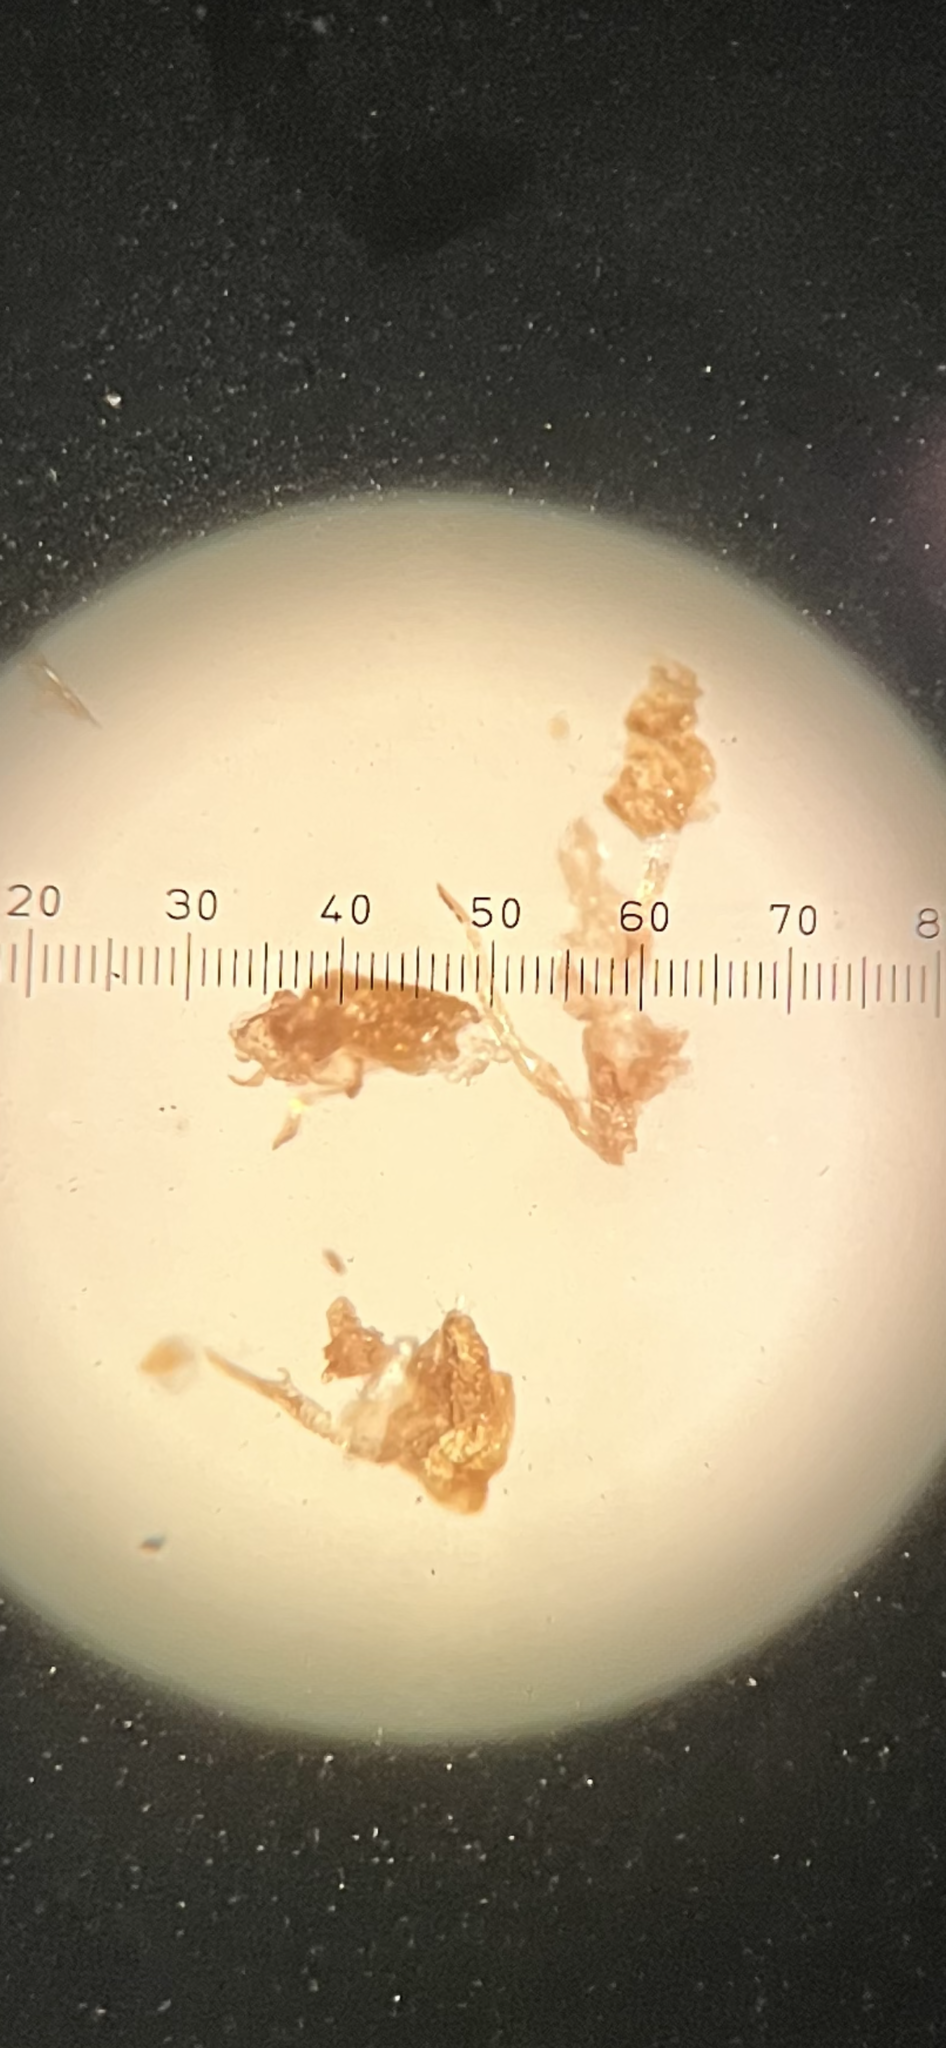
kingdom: Animalia
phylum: Arthropoda
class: Insecta
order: Hemiptera
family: Cicadellidae
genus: Hebata
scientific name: Hebata solani
